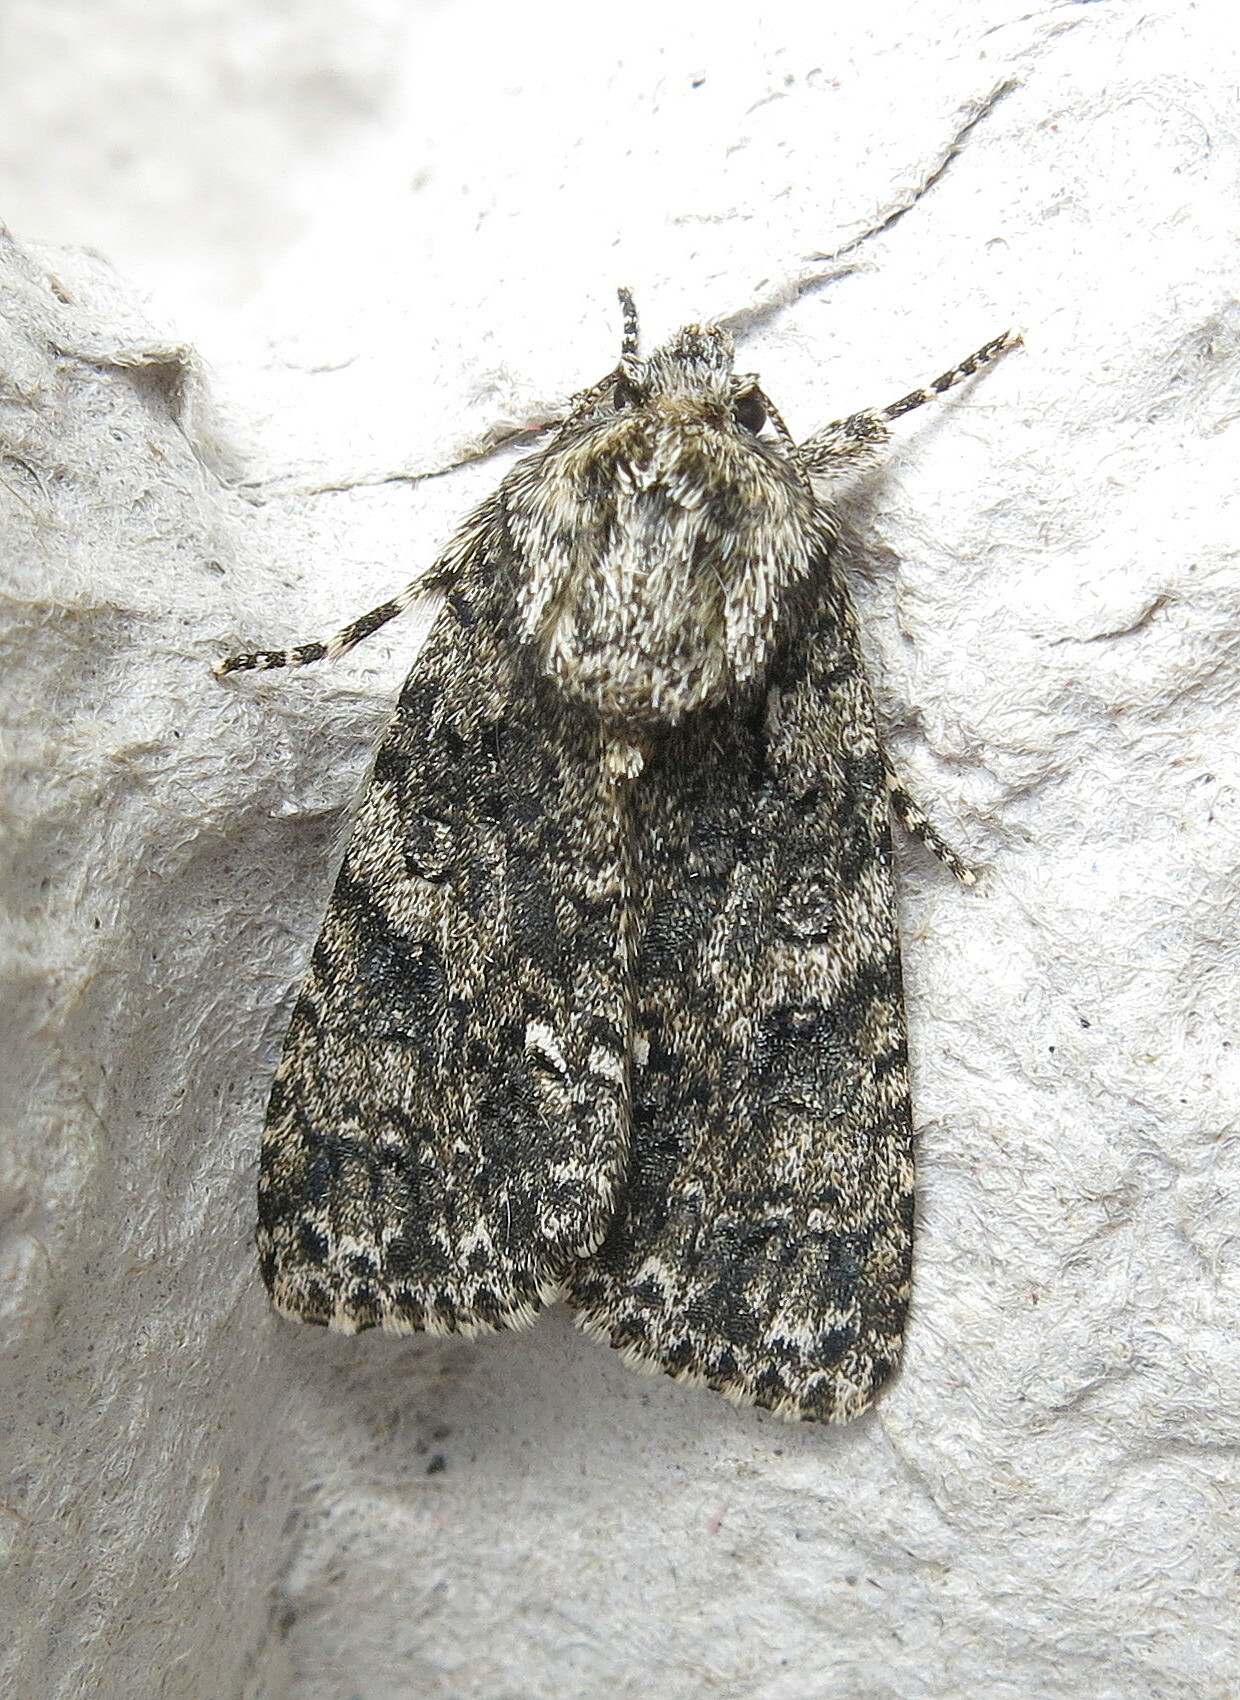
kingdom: Animalia
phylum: Arthropoda
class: Insecta
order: Lepidoptera
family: Noctuidae
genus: Acronicta
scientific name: Acronicta rumicis
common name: Knot grass
